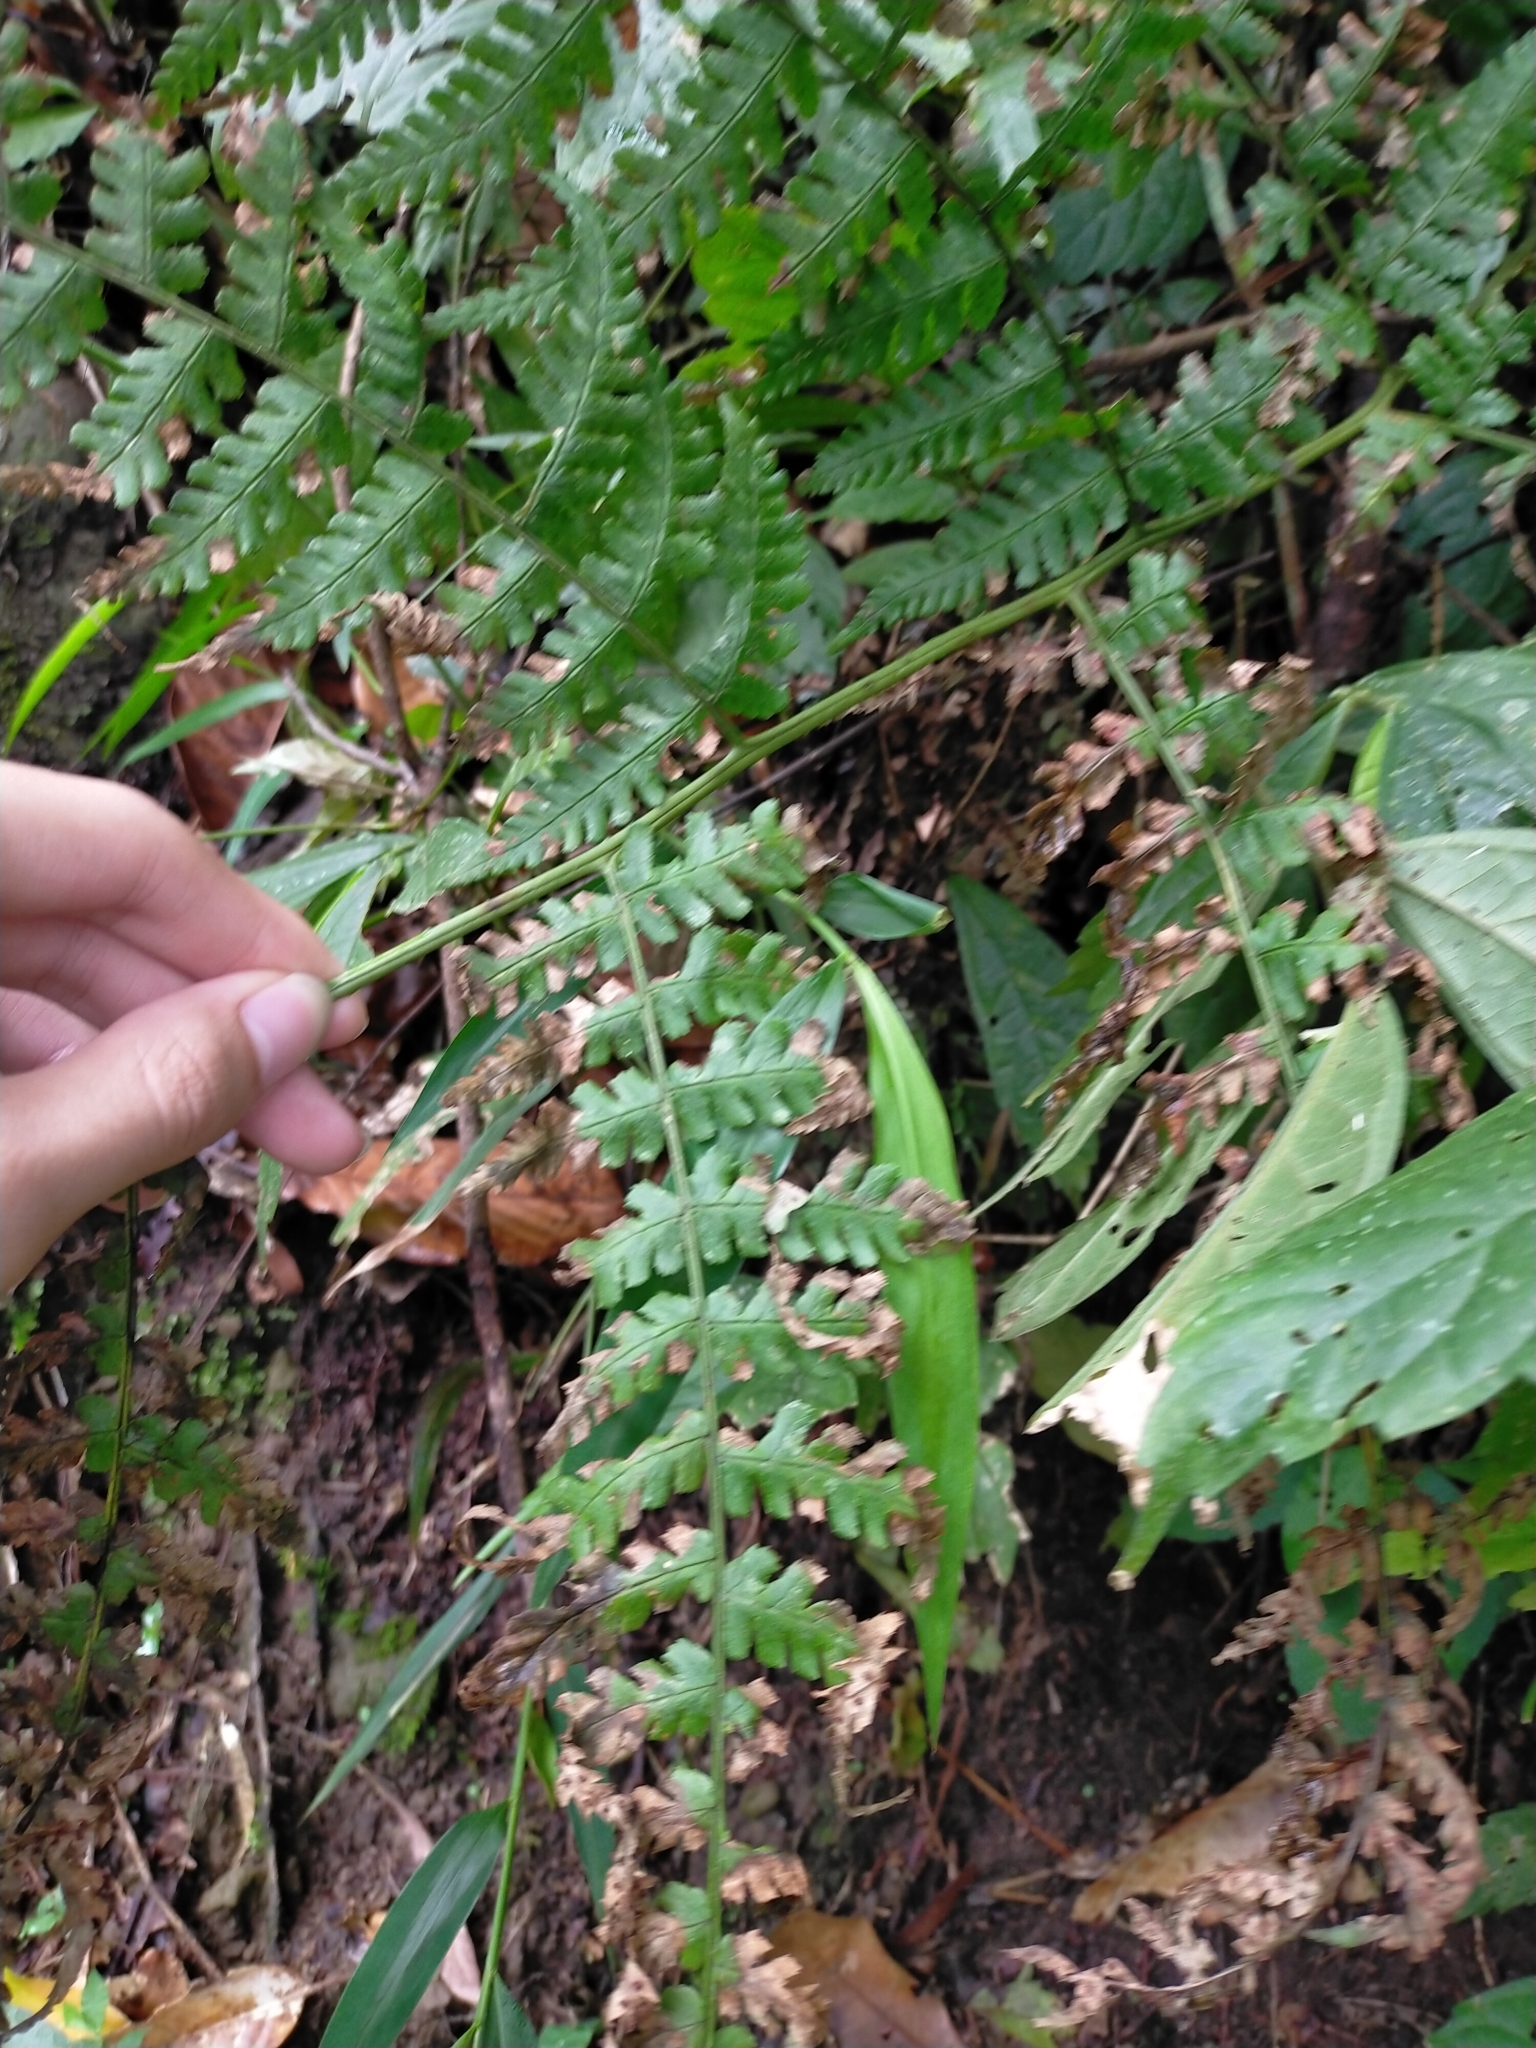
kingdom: Plantae
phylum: Tracheophyta
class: Polypodiopsida
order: Polypodiales
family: Dryopteridaceae
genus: Dryopteris
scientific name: Dryopteris marginata
